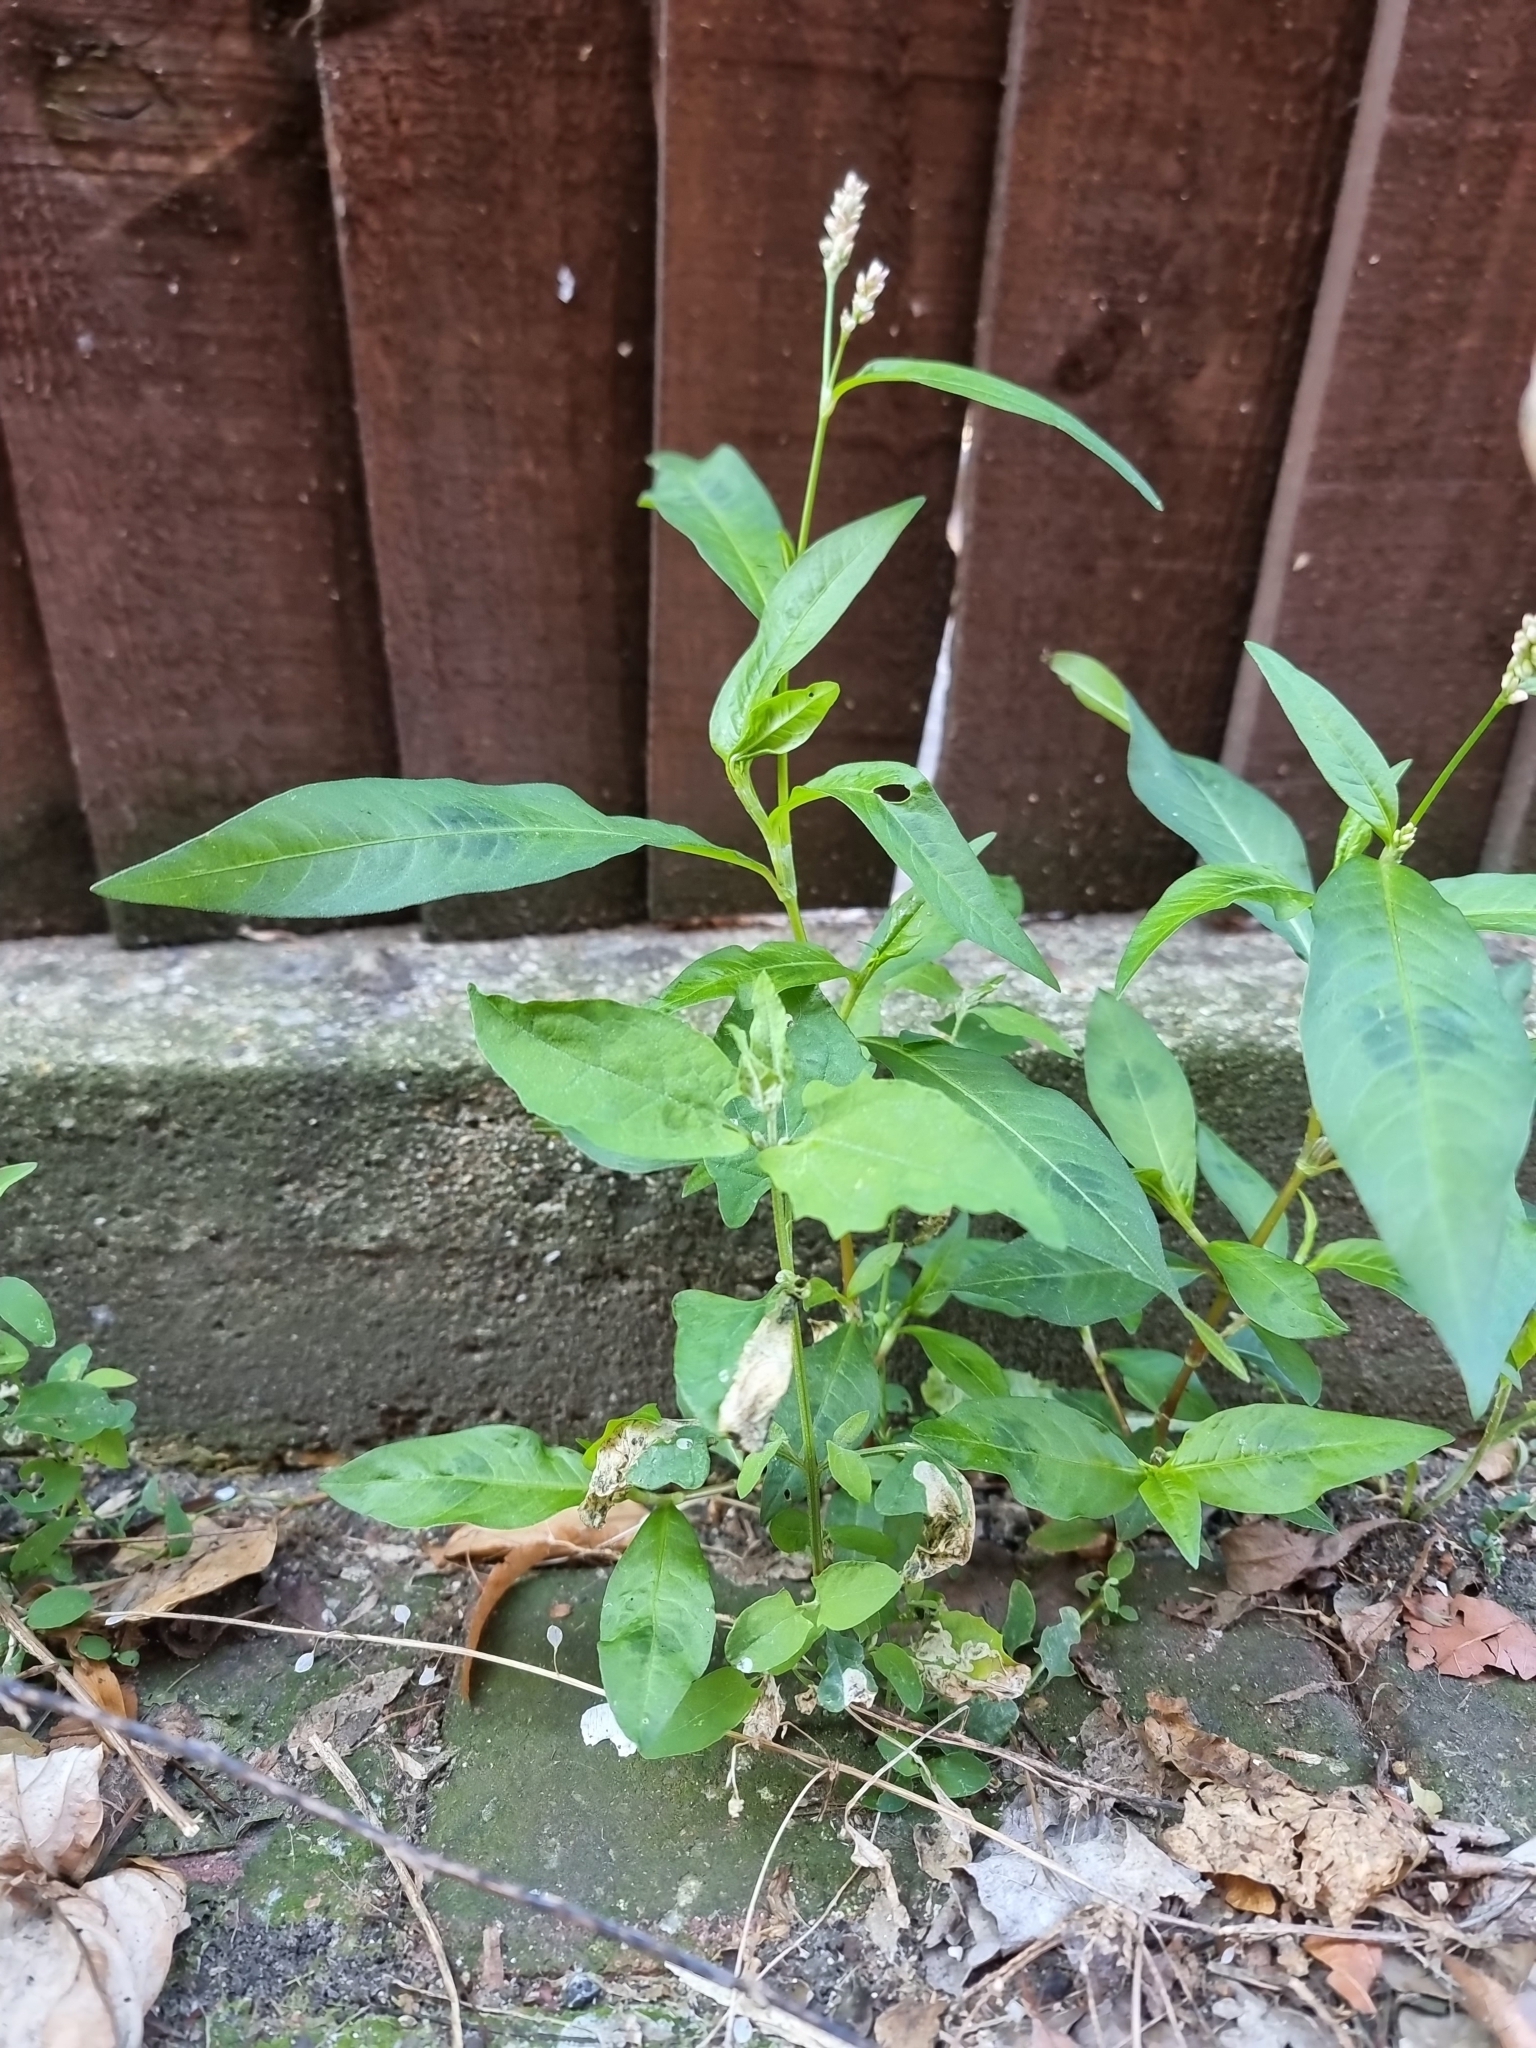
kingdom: Plantae
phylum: Tracheophyta
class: Magnoliopsida
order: Caryophyllales
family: Polygonaceae
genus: Persicaria
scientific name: Persicaria maculosa
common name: Redshank
